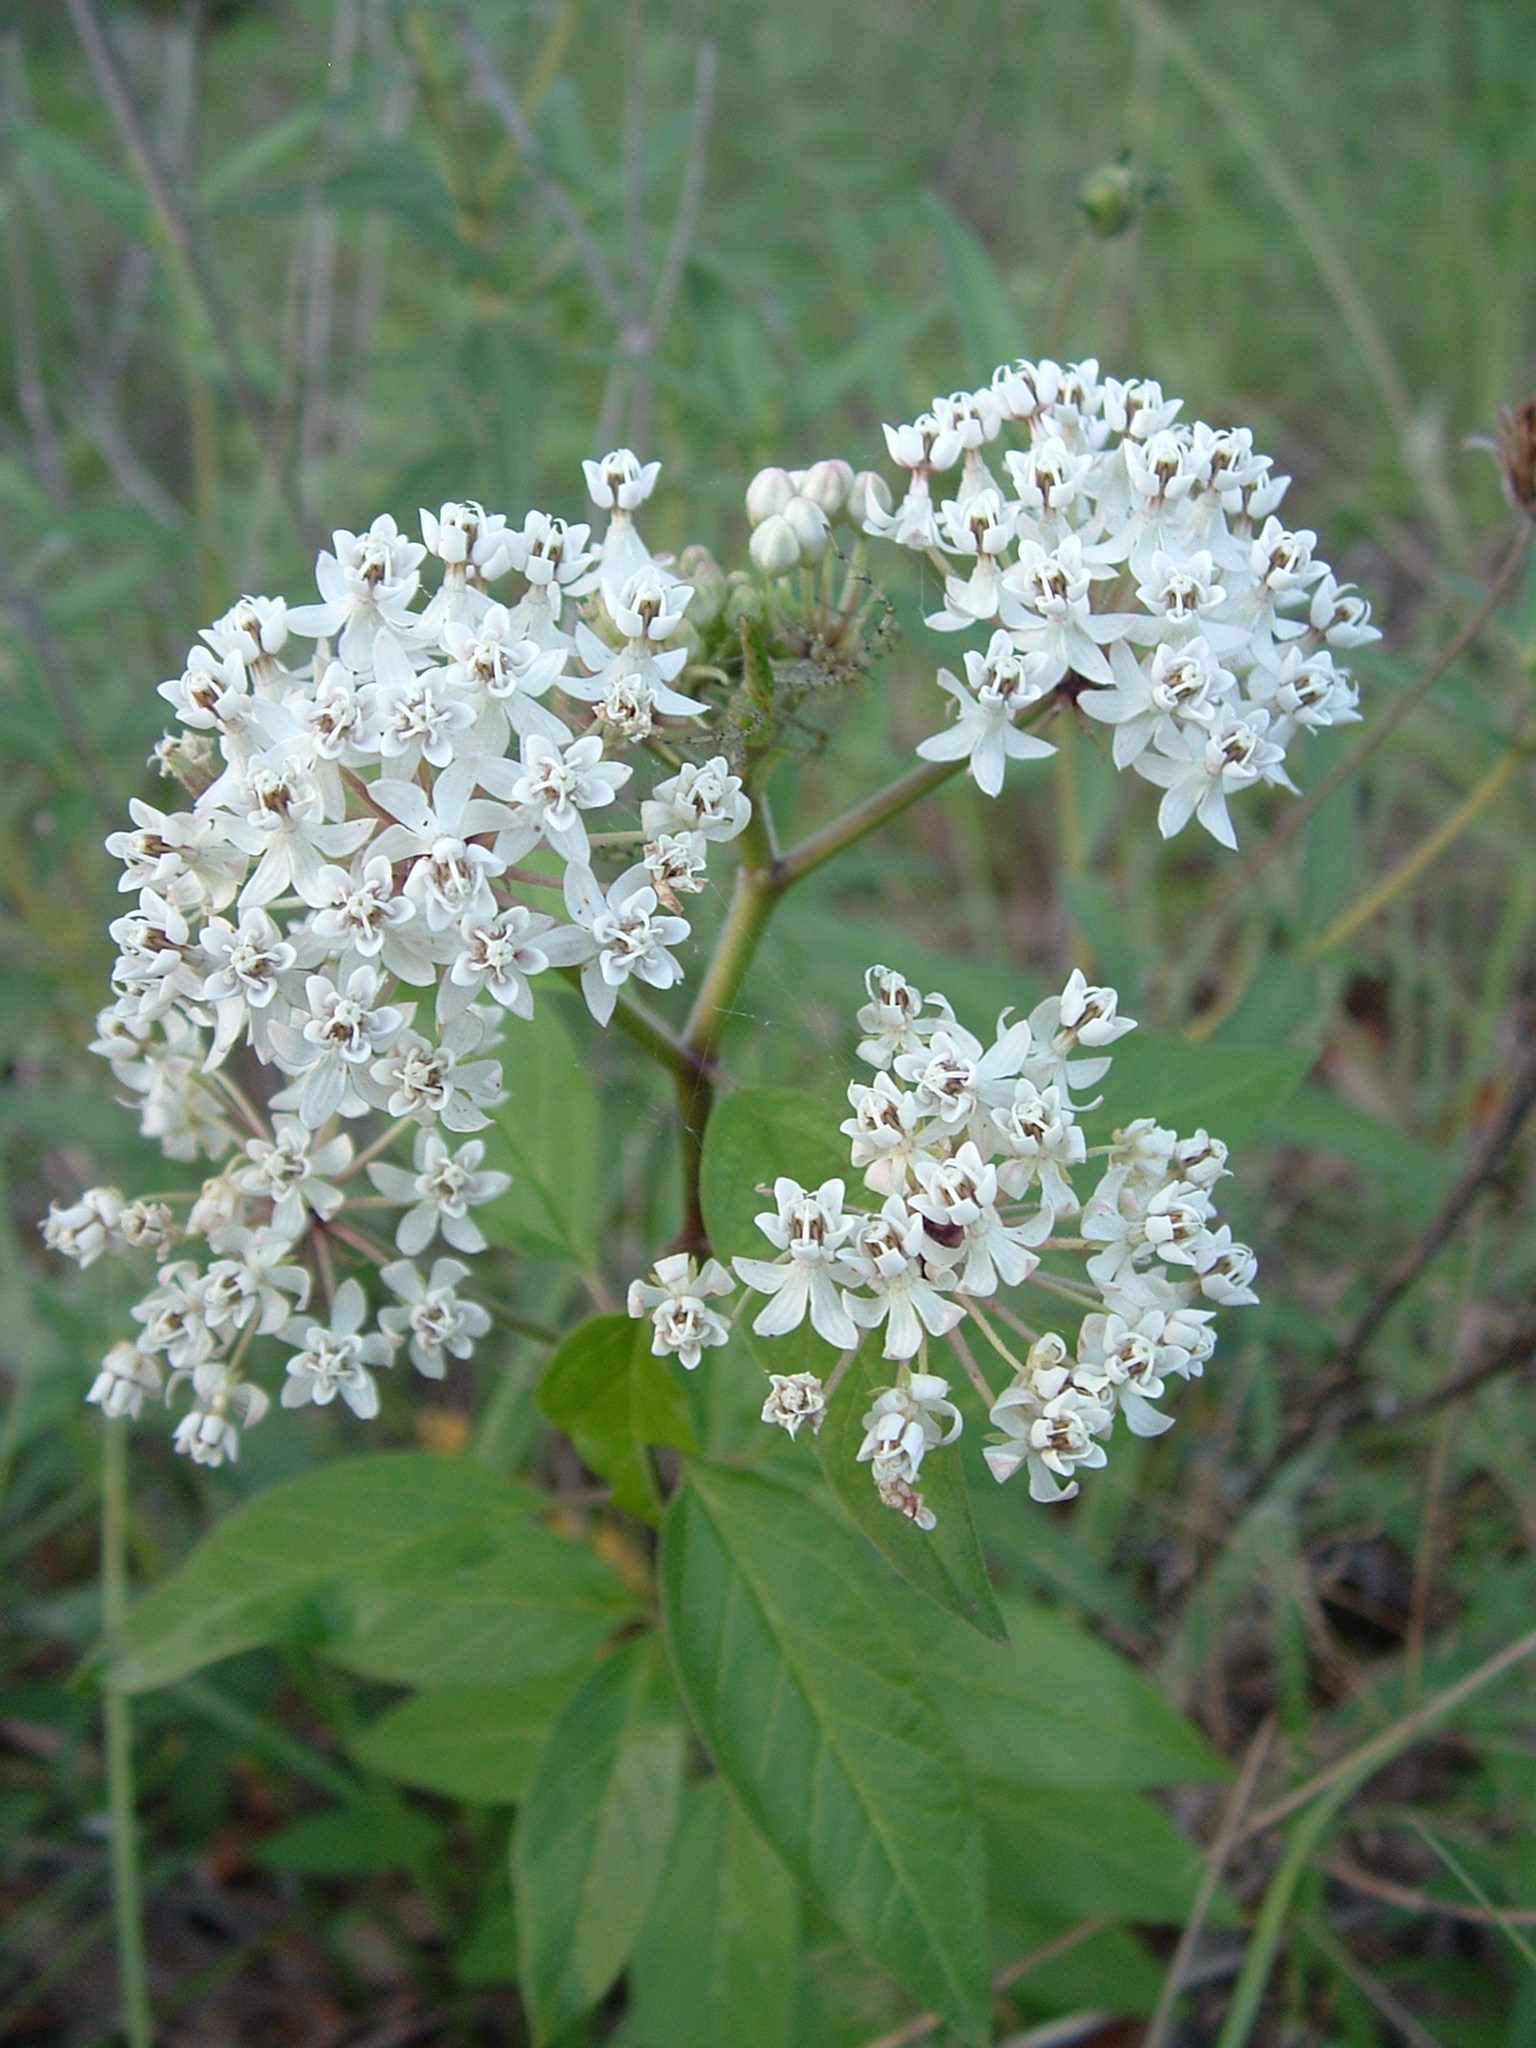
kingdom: Plantae
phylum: Tracheophyta
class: Magnoliopsida
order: Gentianales
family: Apocynaceae
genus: Asclepias
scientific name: Asclepias texana
